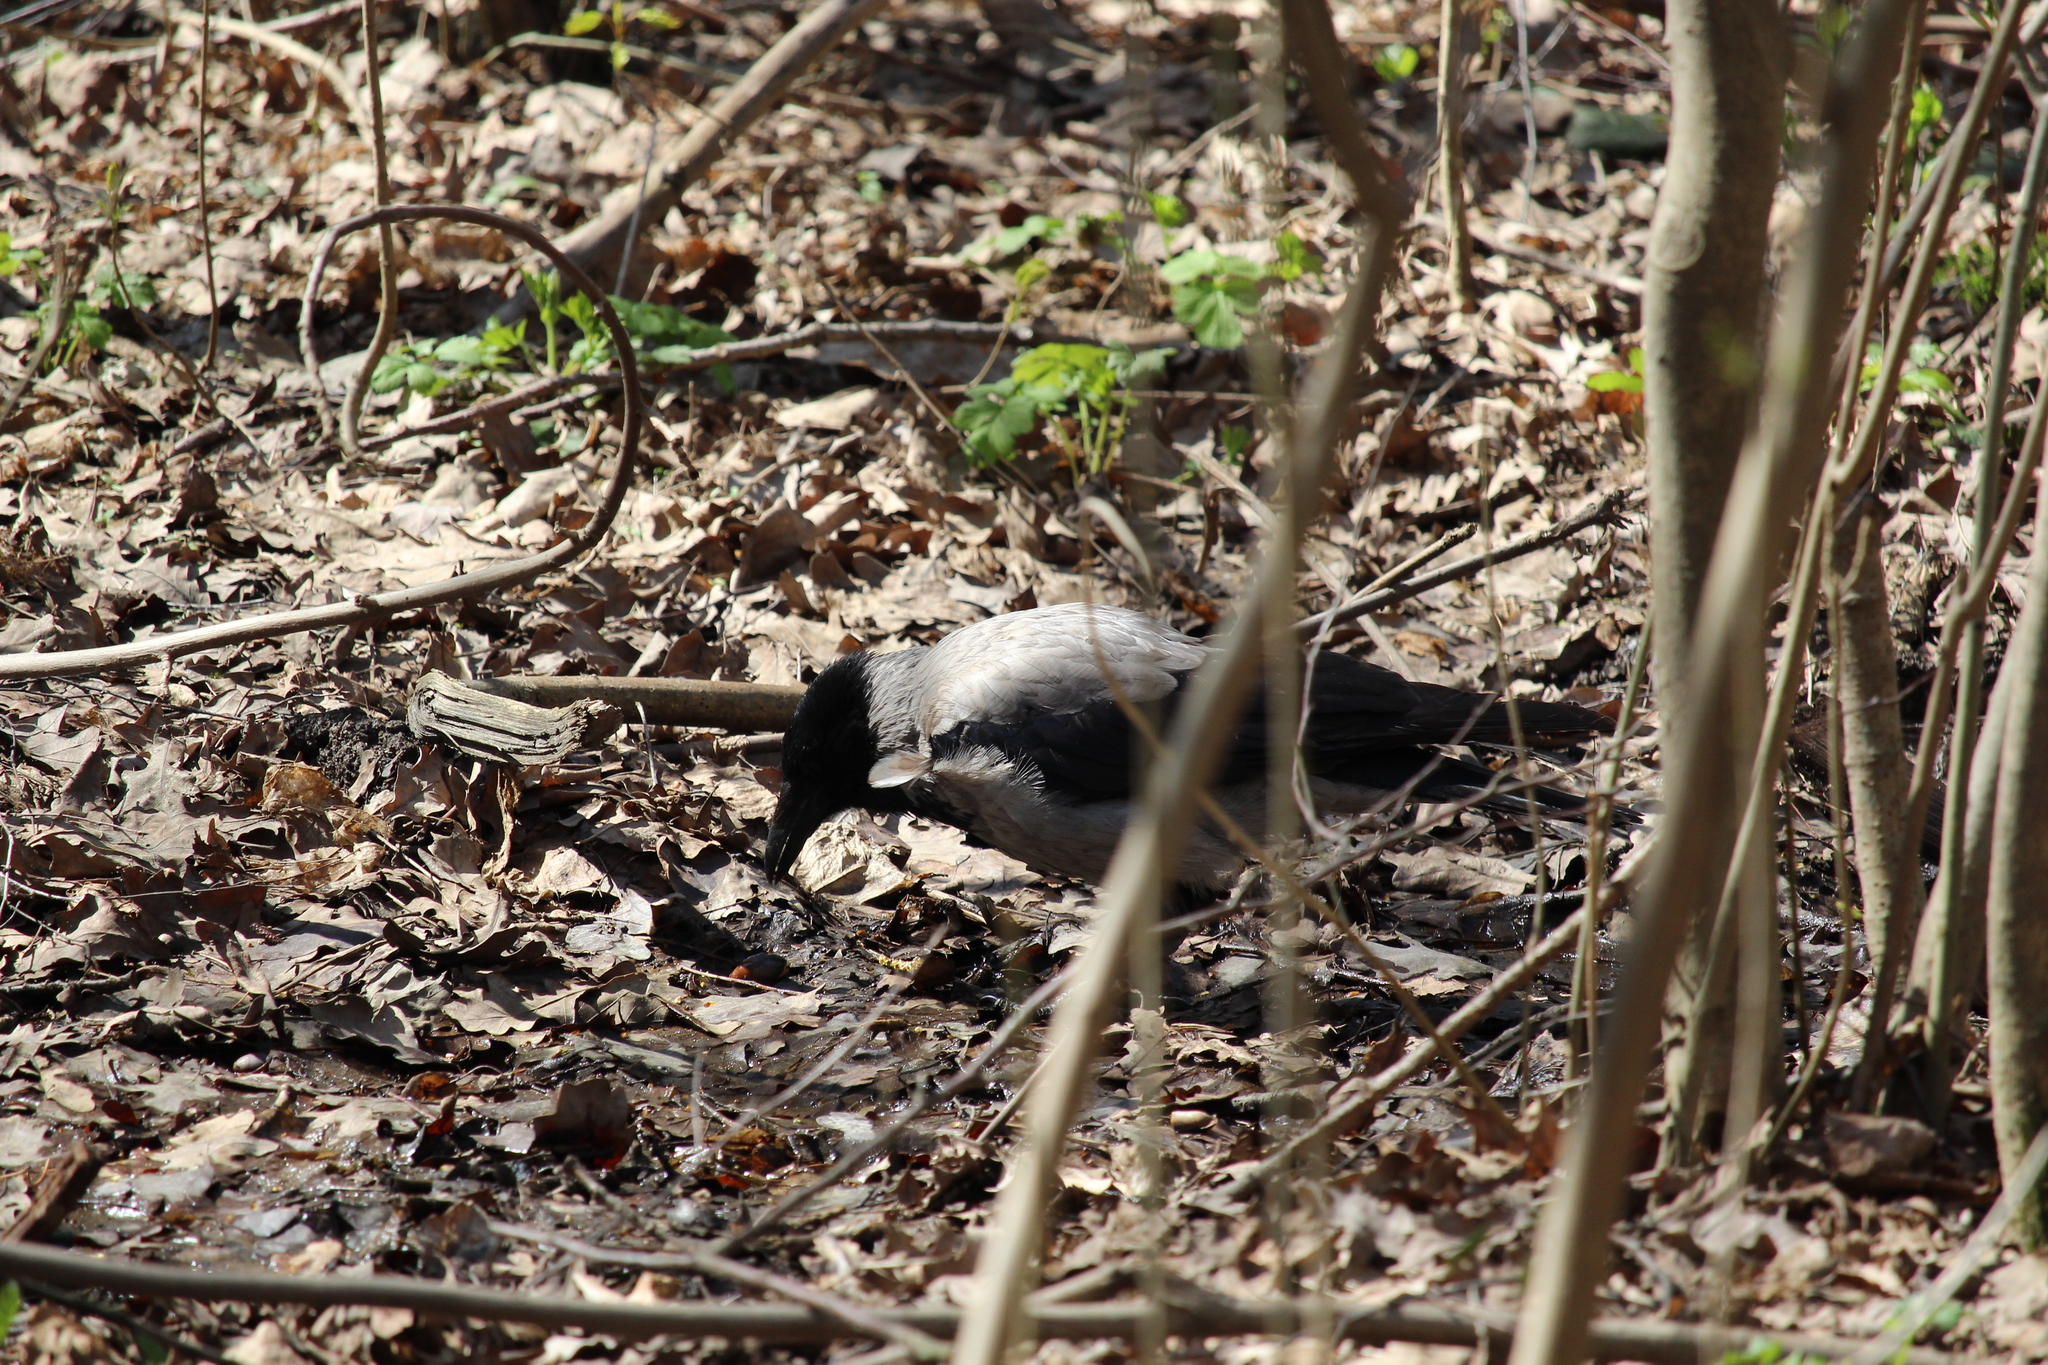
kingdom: Animalia
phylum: Chordata
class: Aves
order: Passeriformes
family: Corvidae
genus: Corvus
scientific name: Corvus cornix
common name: Hooded crow
